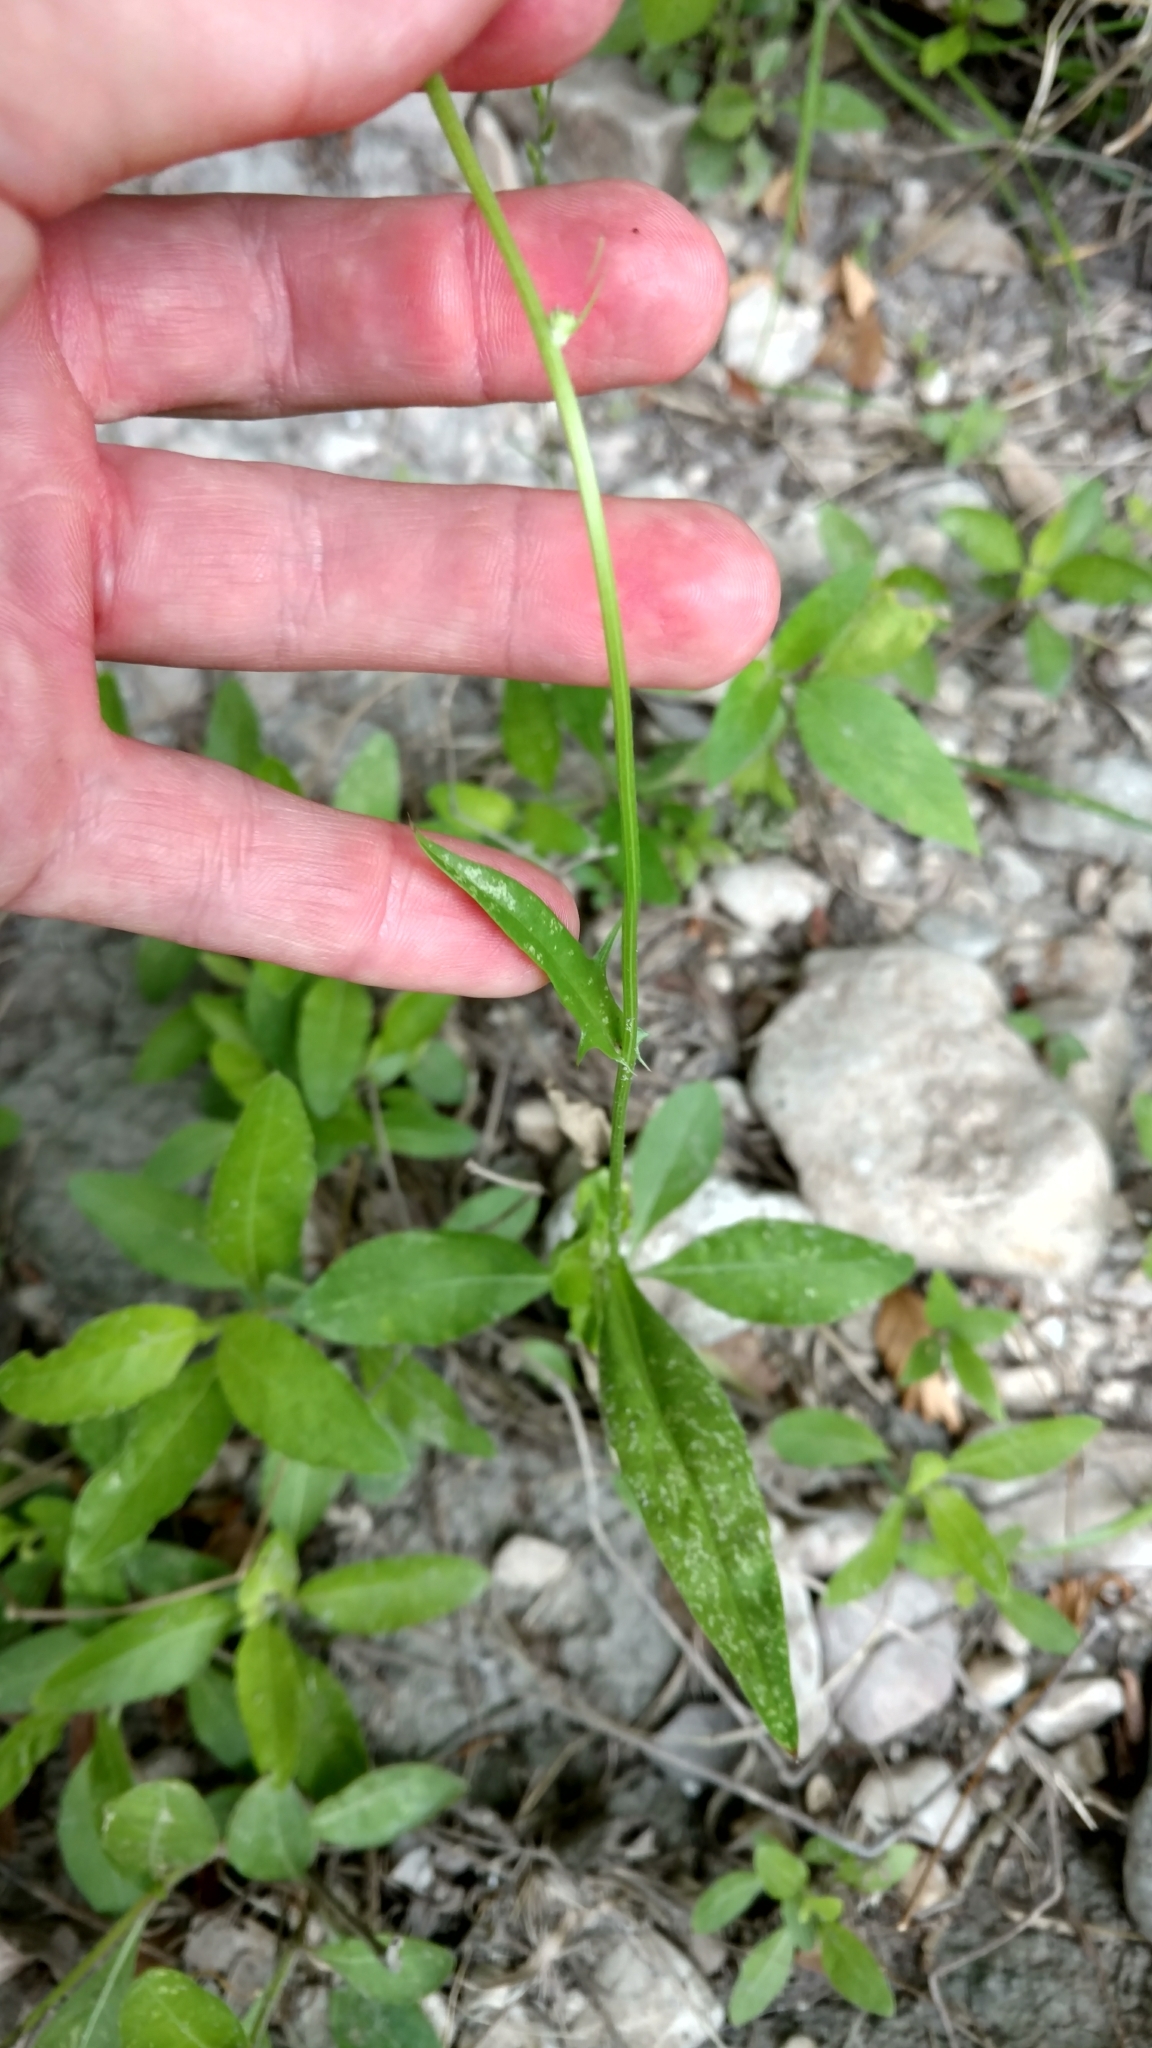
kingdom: Plantae
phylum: Tracheophyta
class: Magnoliopsida
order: Asterales
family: Asteraceae
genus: Pyrrhopappus
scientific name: Pyrrhopappus pauciflorus
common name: Texas false dandelion
